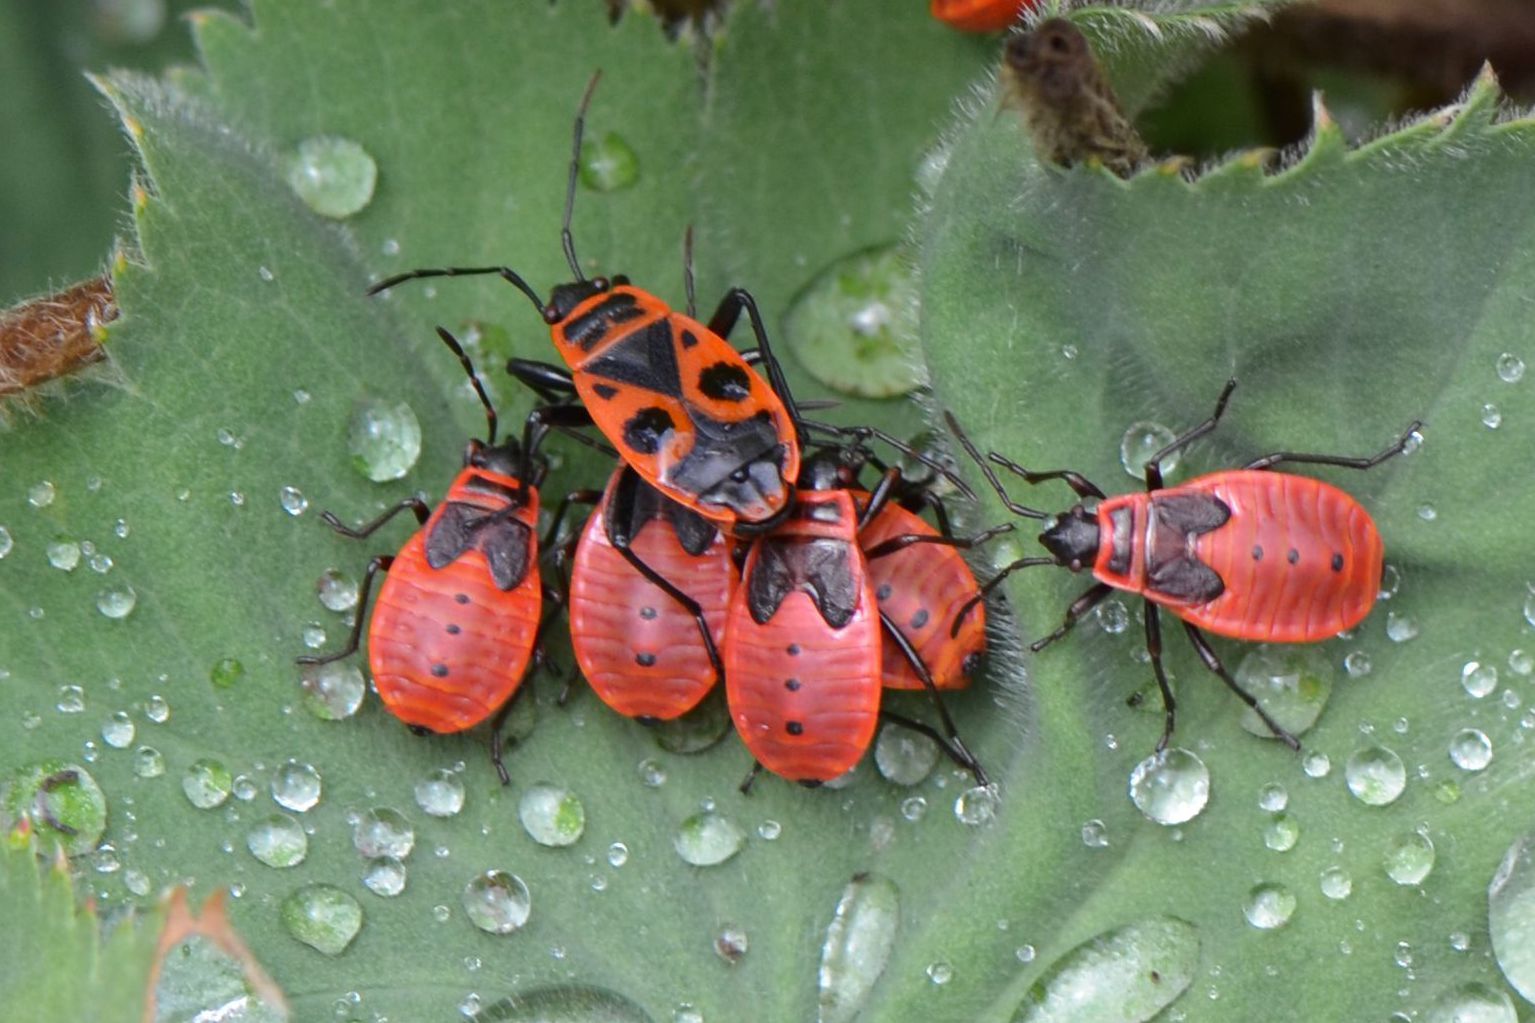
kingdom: Animalia
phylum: Arthropoda
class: Insecta
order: Hemiptera
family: Pyrrhocoridae
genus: Pyrrhocoris
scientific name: Pyrrhocoris apterus
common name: Firebug
